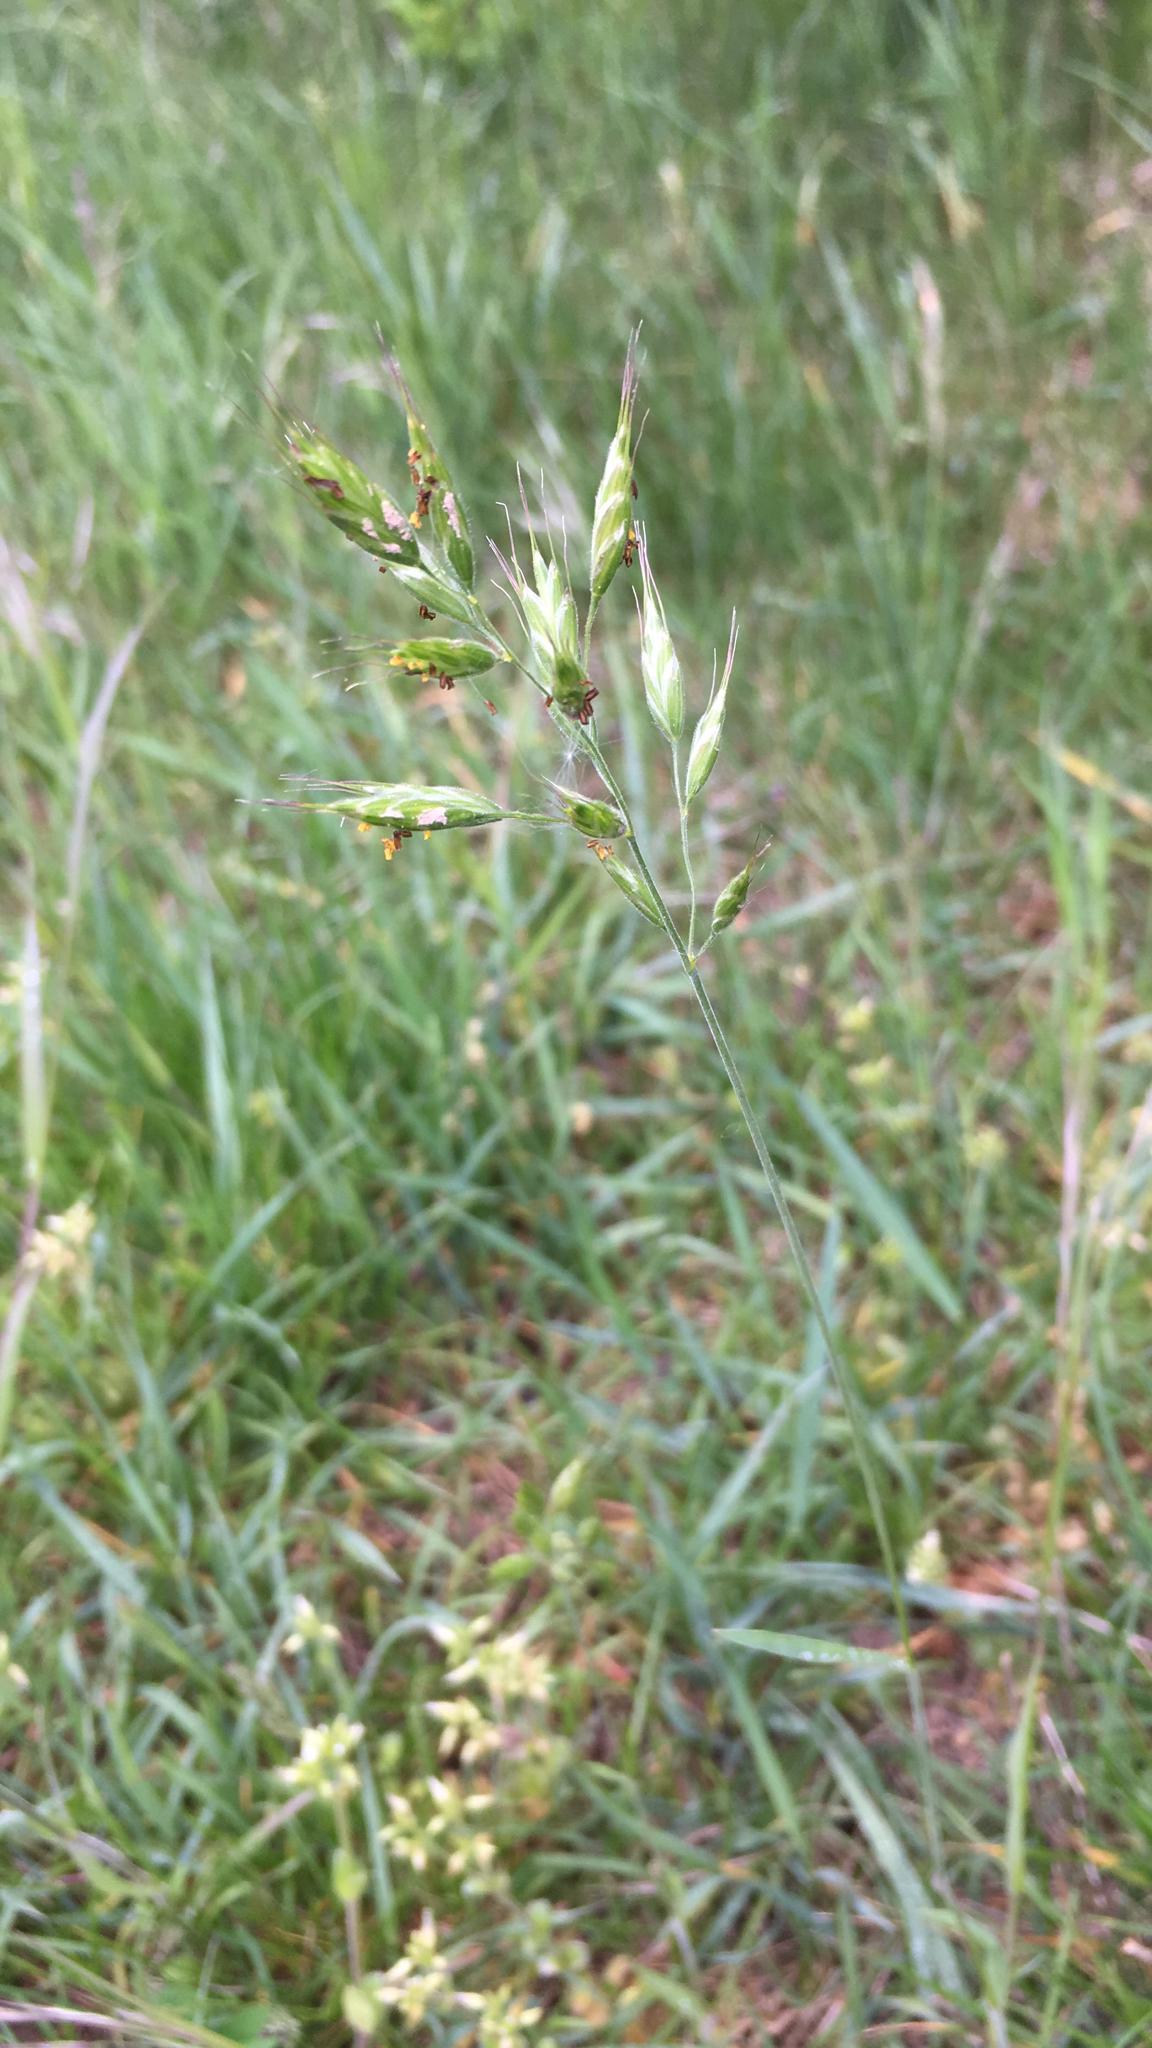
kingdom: Plantae
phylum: Tracheophyta
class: Liliopsida
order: Poales
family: Poaceae
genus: Bromus
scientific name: Bromus hordeaceus
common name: Soft brome
